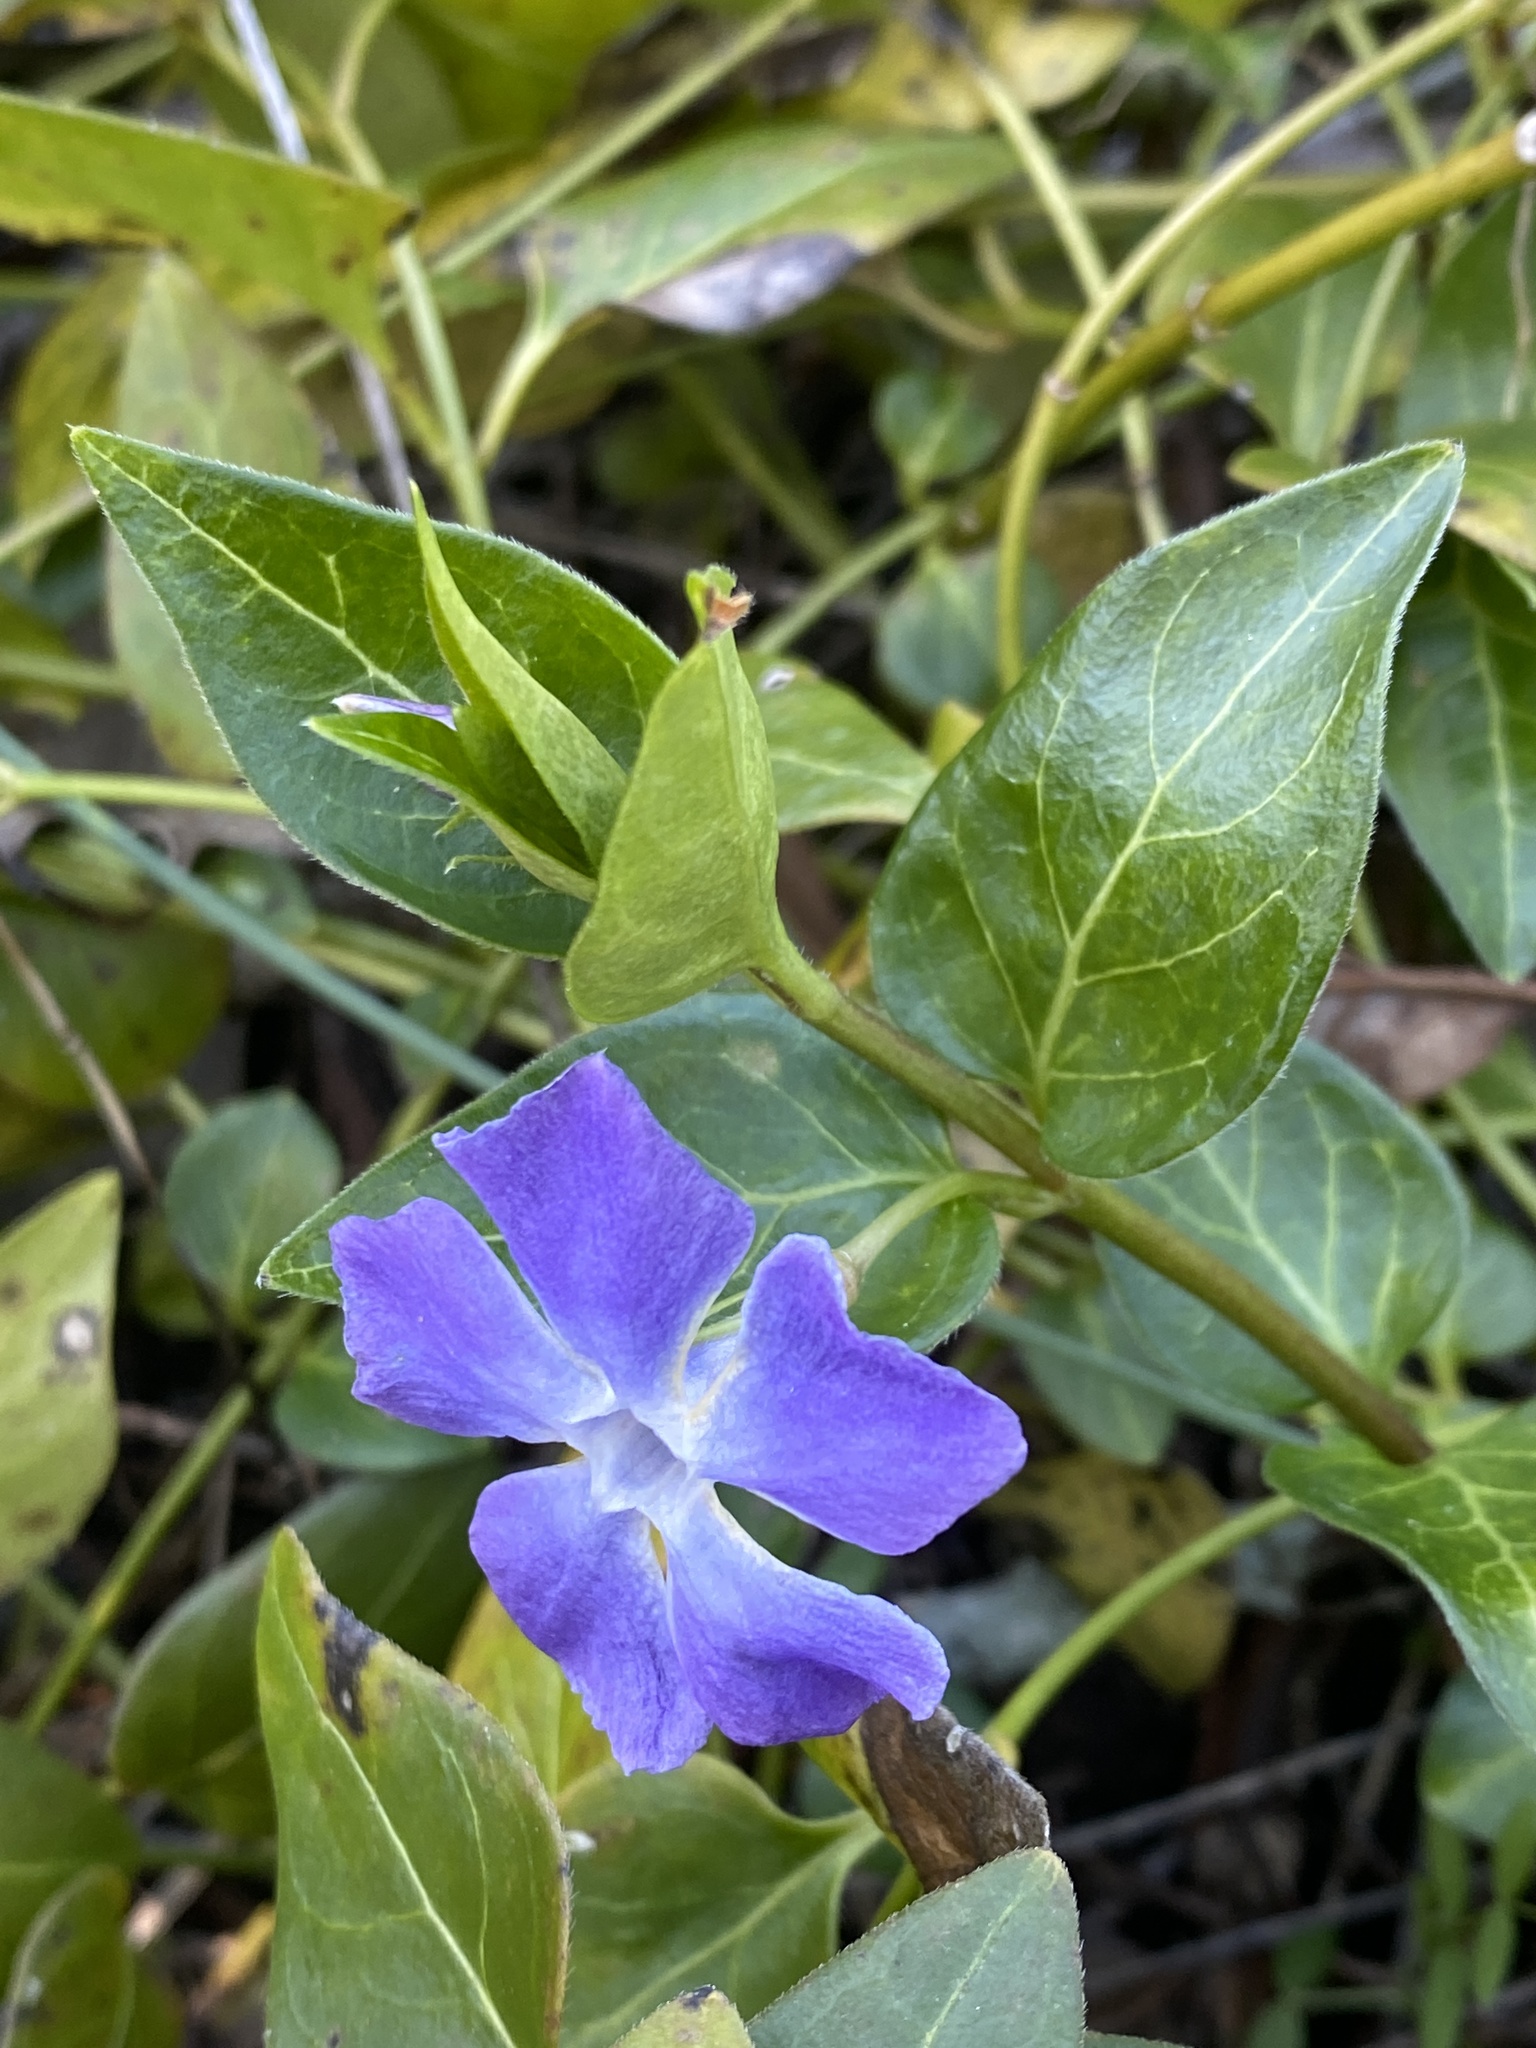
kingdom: Plantae
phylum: Tracheophyta
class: Magnoliopsida
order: Gentianales
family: Apocynaceae
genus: Vinca
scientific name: Vinca major
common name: Greater periwinkle
